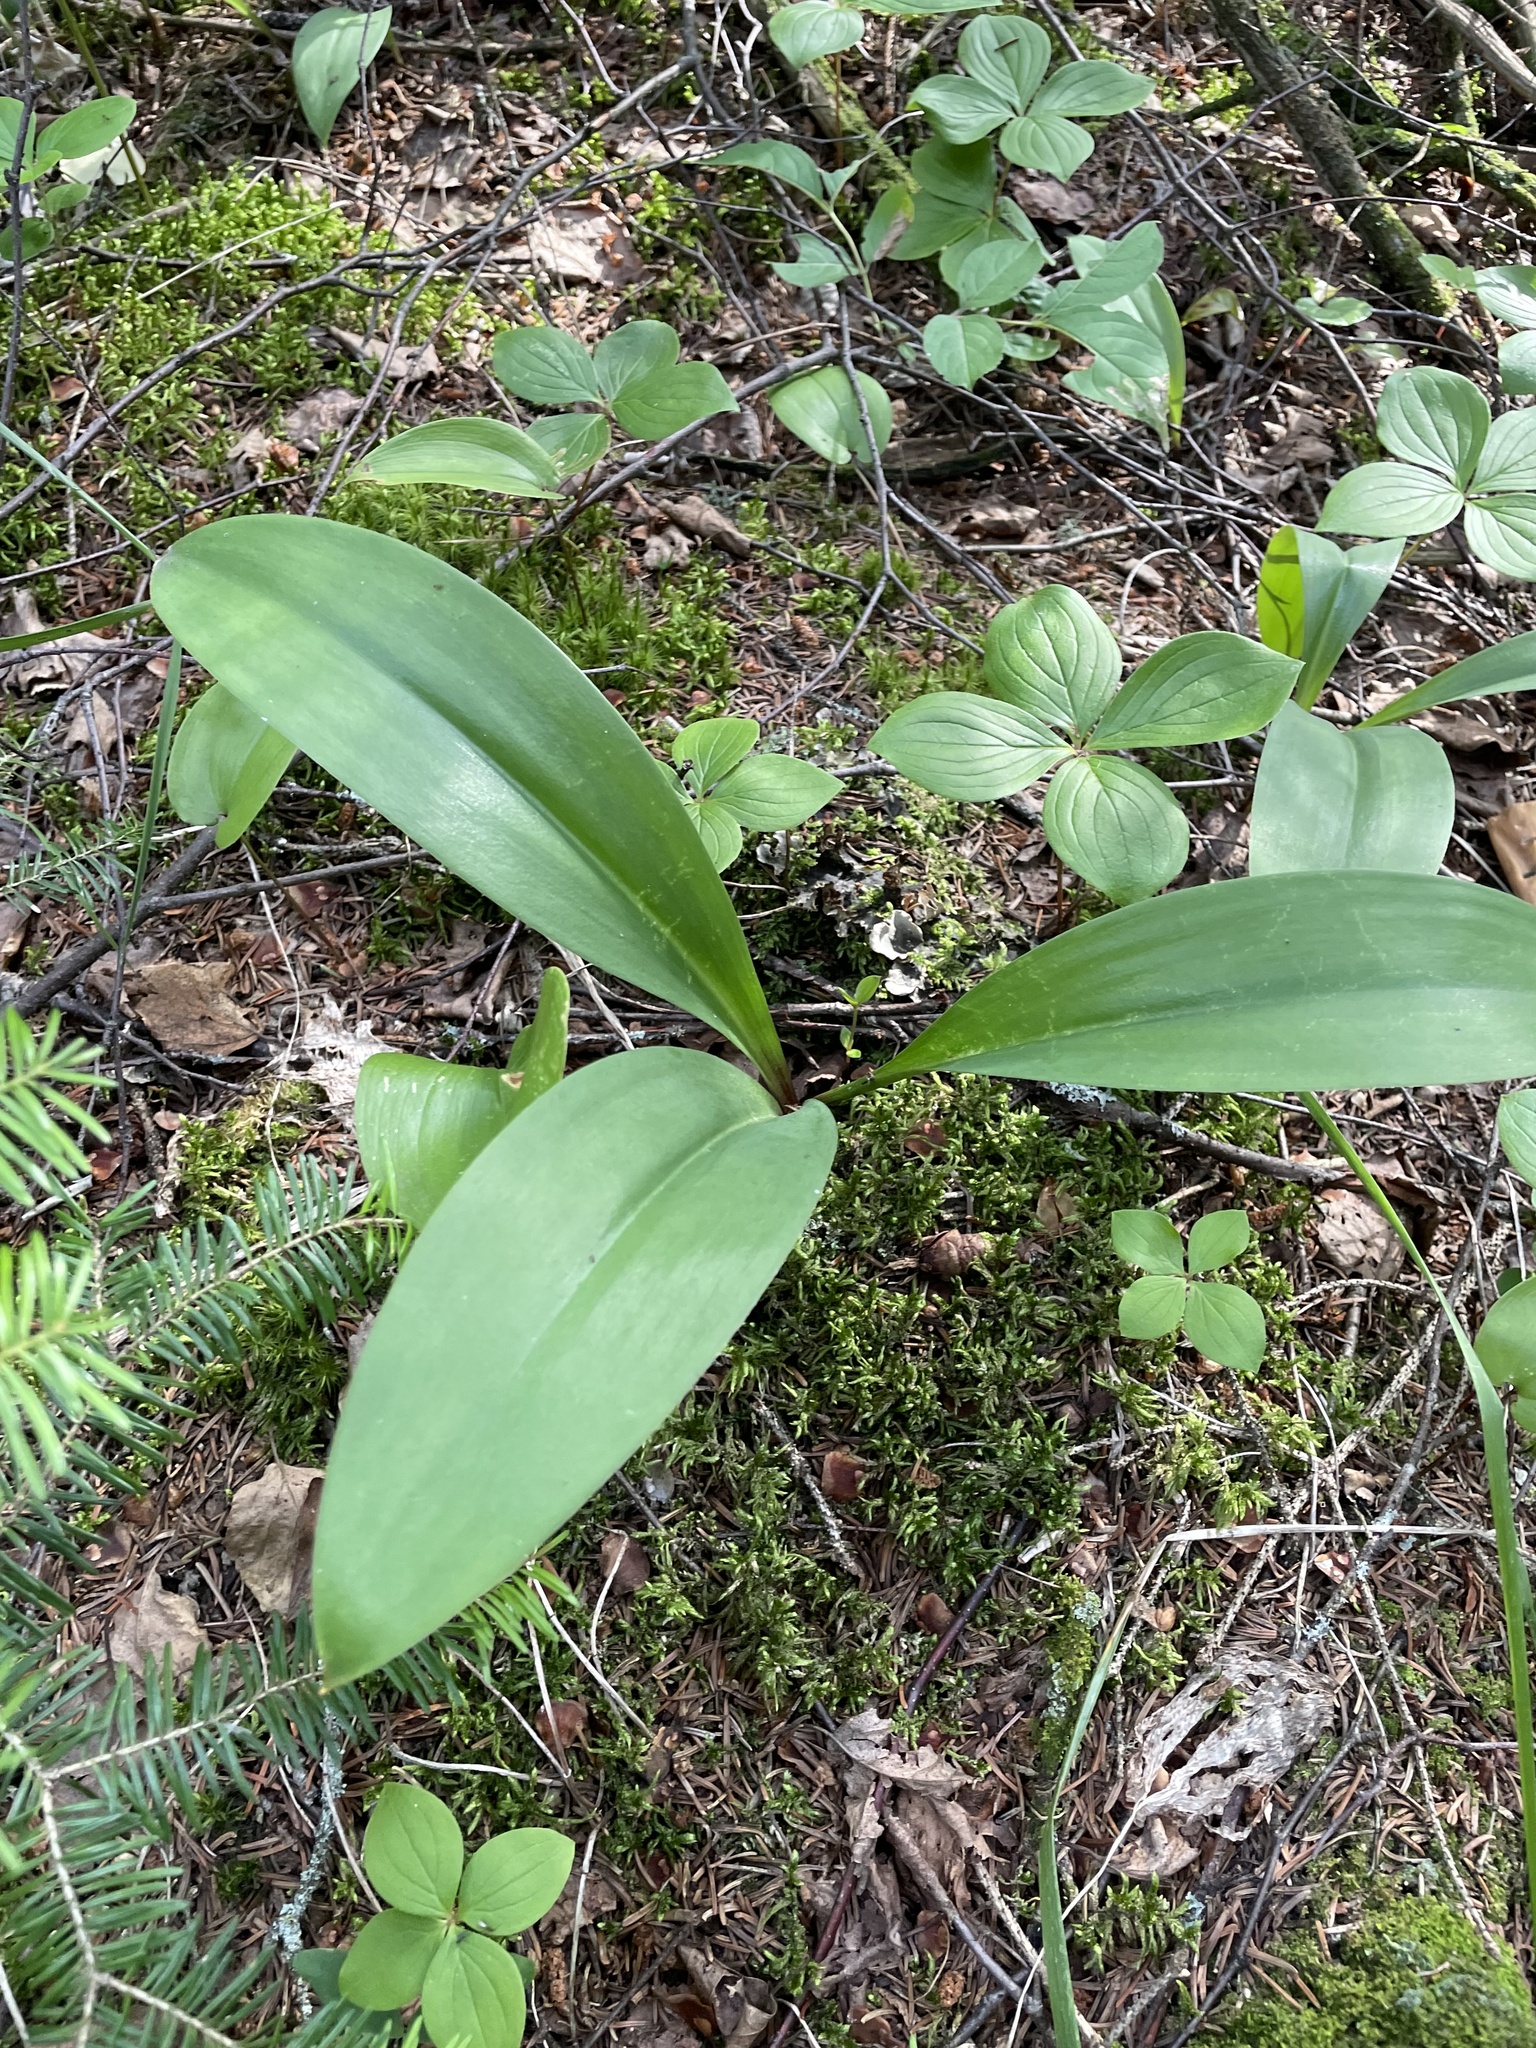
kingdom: Plantae
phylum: Tracheophyta
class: Liliopsida
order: Liliales
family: Liliaceae
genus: Clintonia
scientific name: Clintonia borealis
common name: Yellow clintonia
